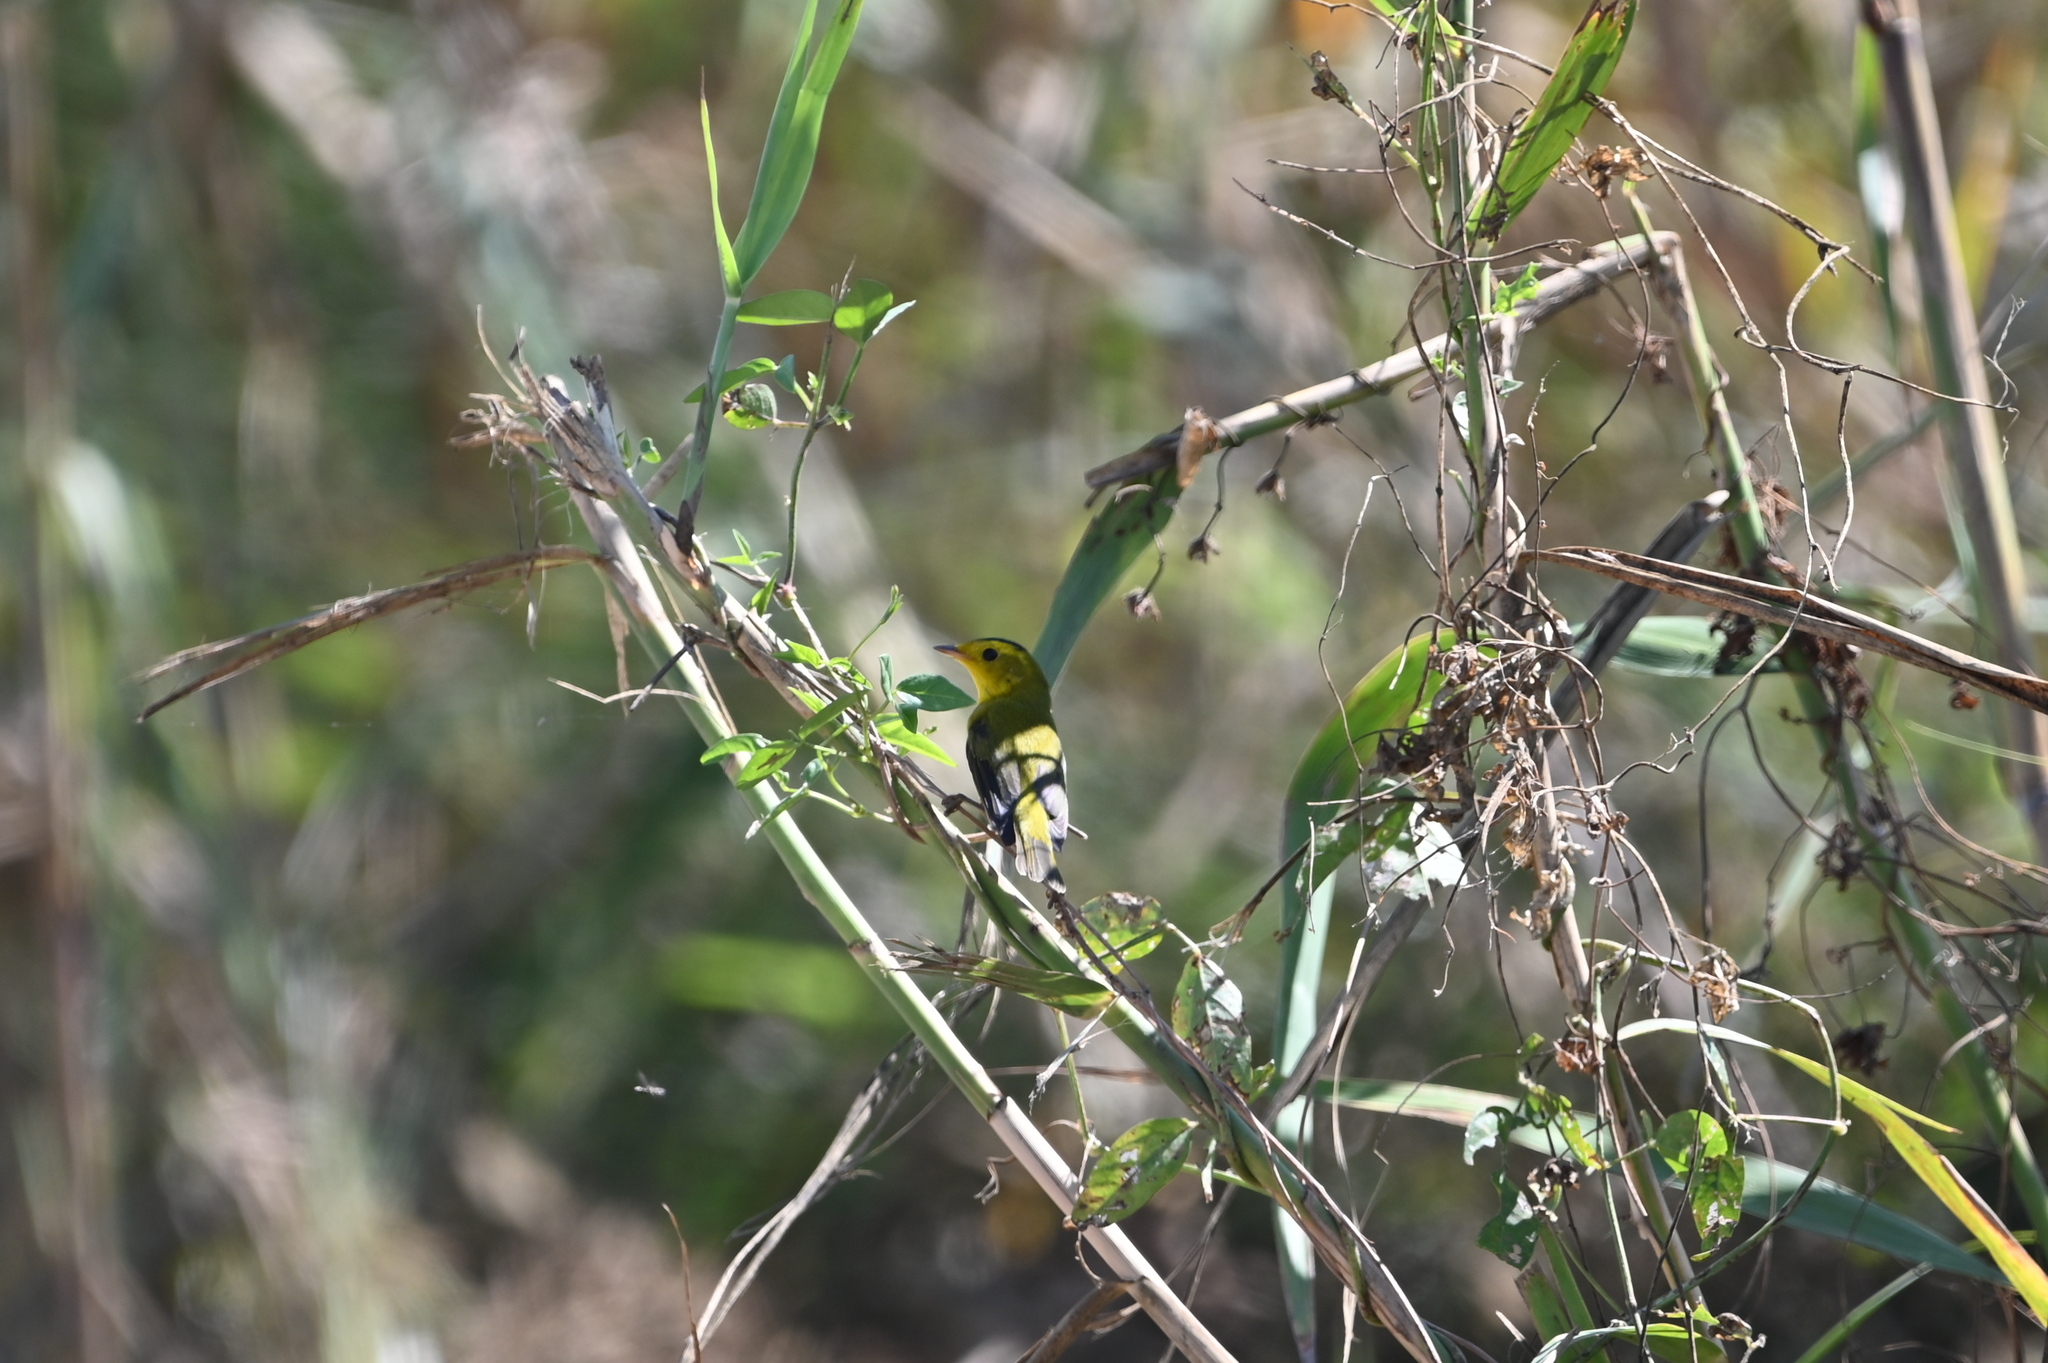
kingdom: Animalia
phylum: Chordata
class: Aves
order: Passeriformes
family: Parulidae
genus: Cardellina
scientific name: Cardellina pusilla
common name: Wilson's warbler
